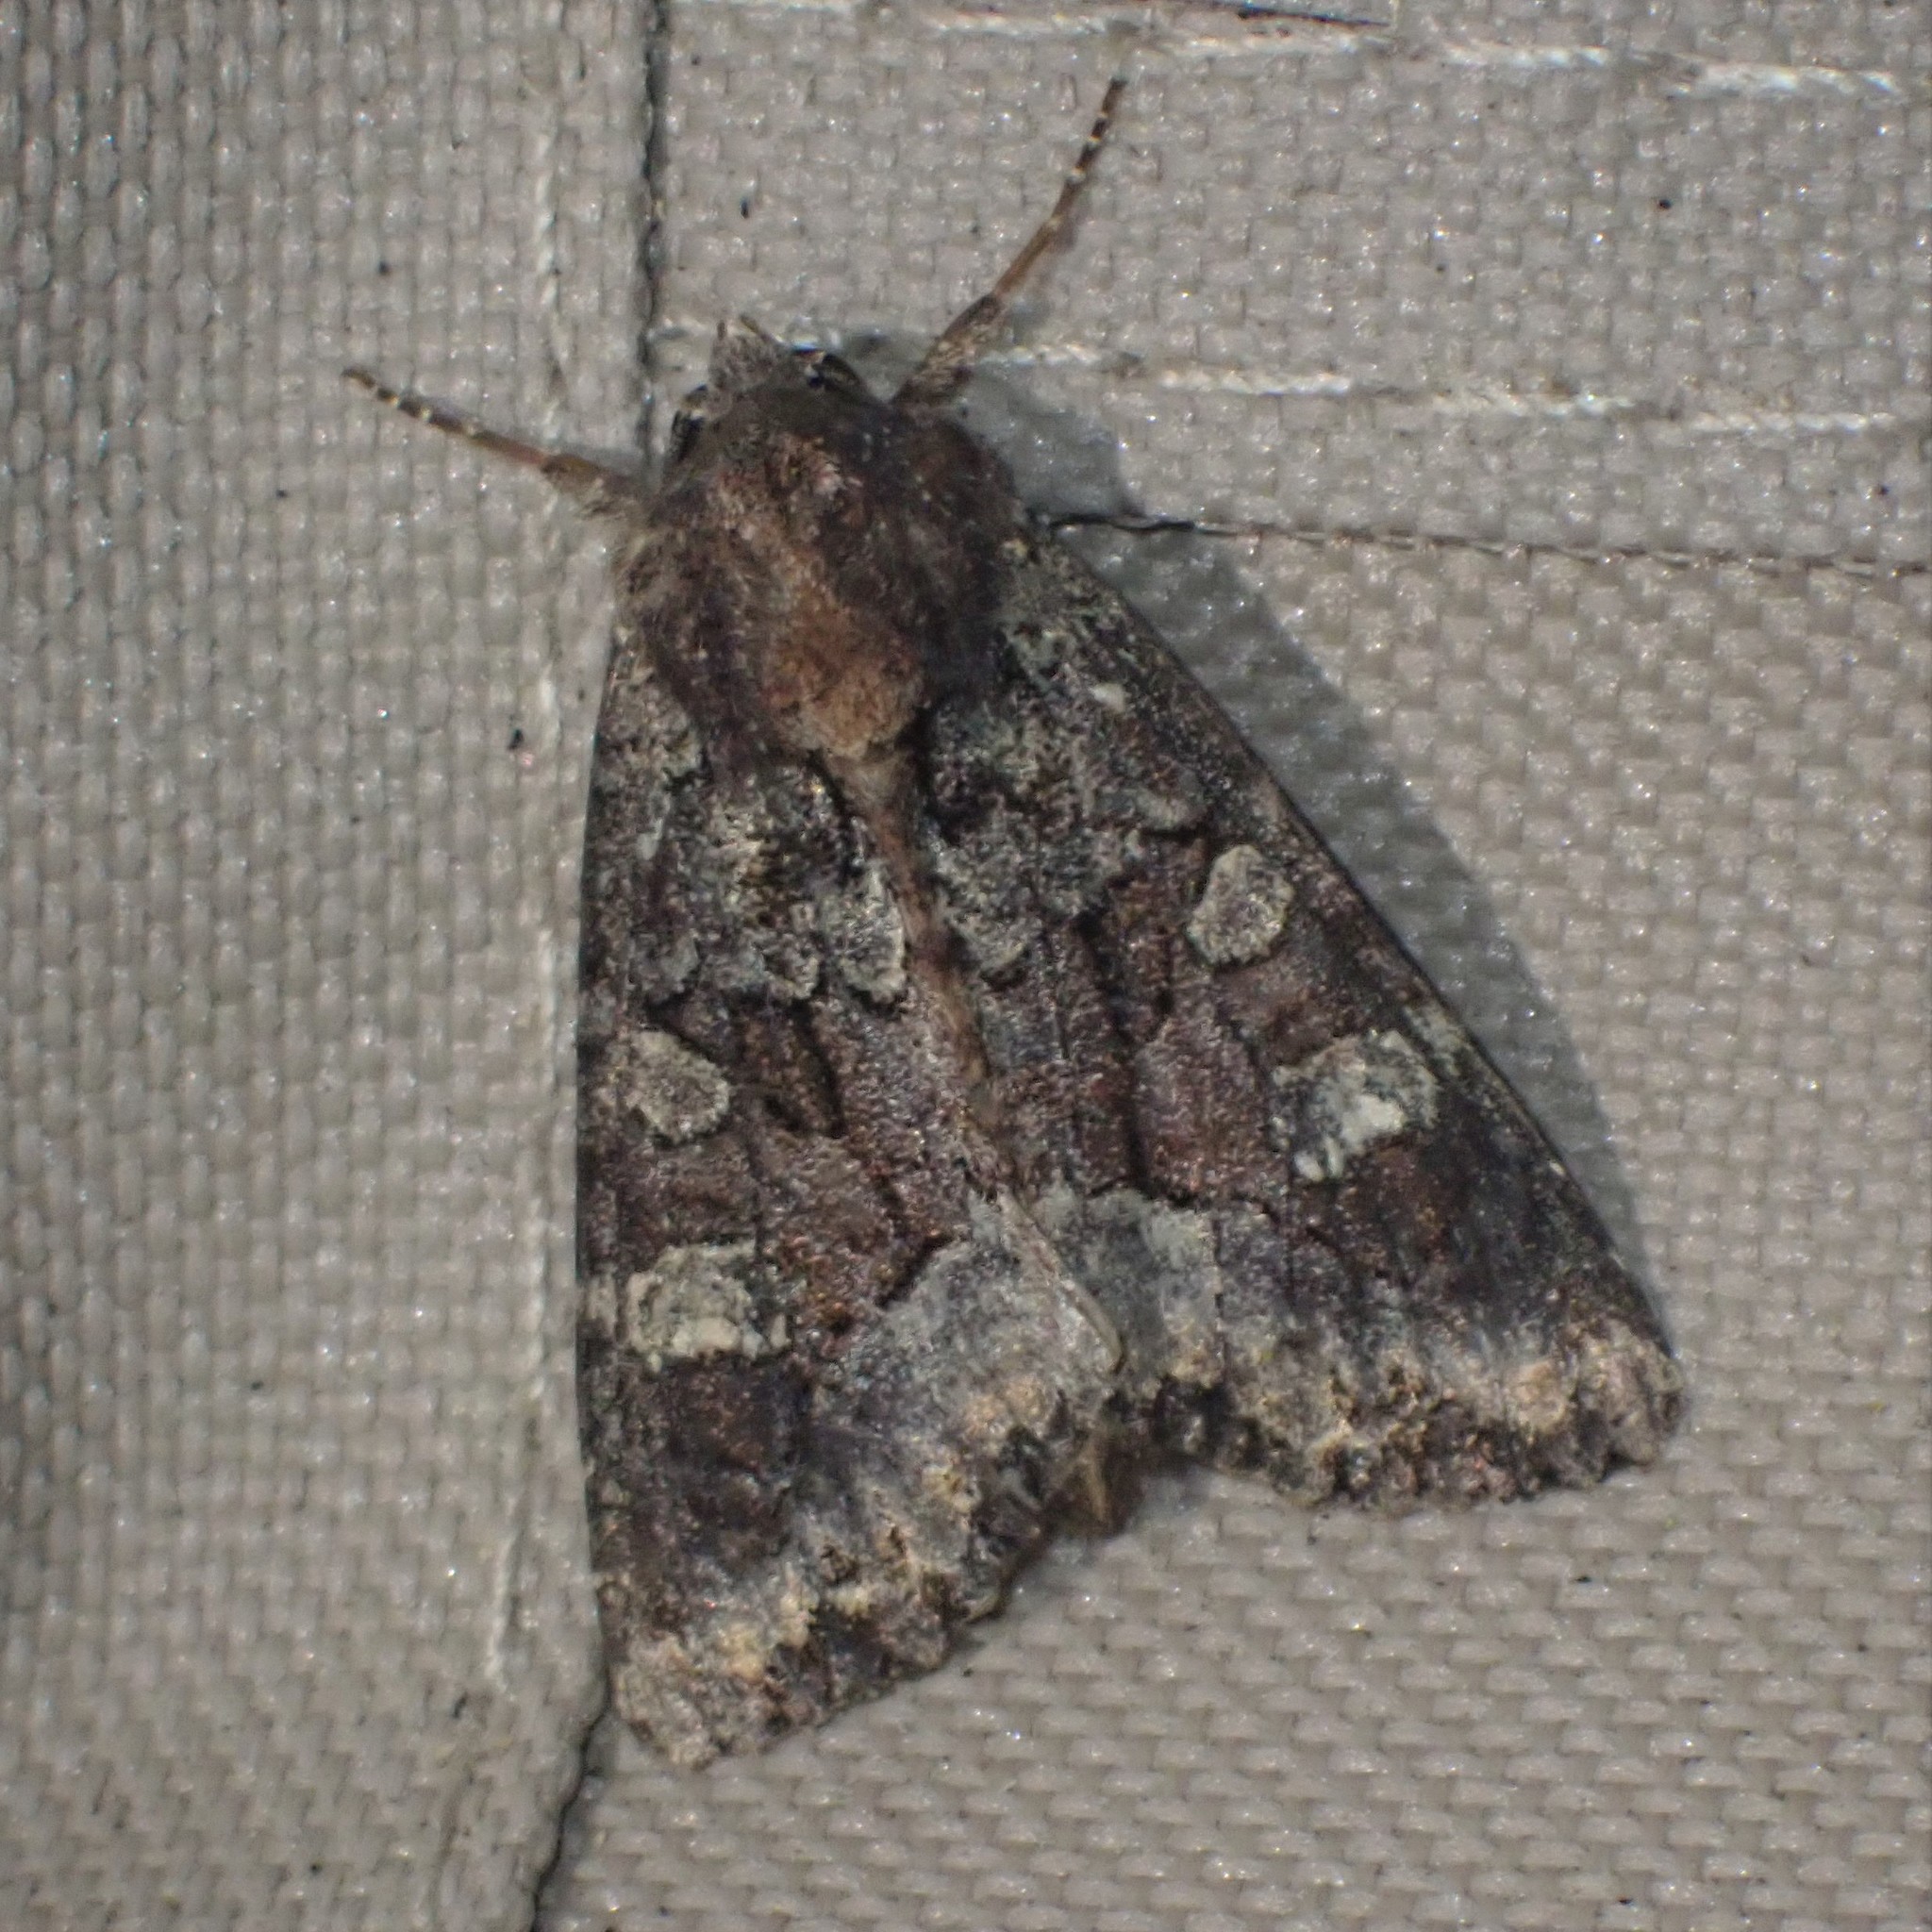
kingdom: Animalia
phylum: Arthropoda
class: Insecta
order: Lepidoptera
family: Noctuidae
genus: Apamea
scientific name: Apamea amputatrix
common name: Yellow-headed cutworm moth
